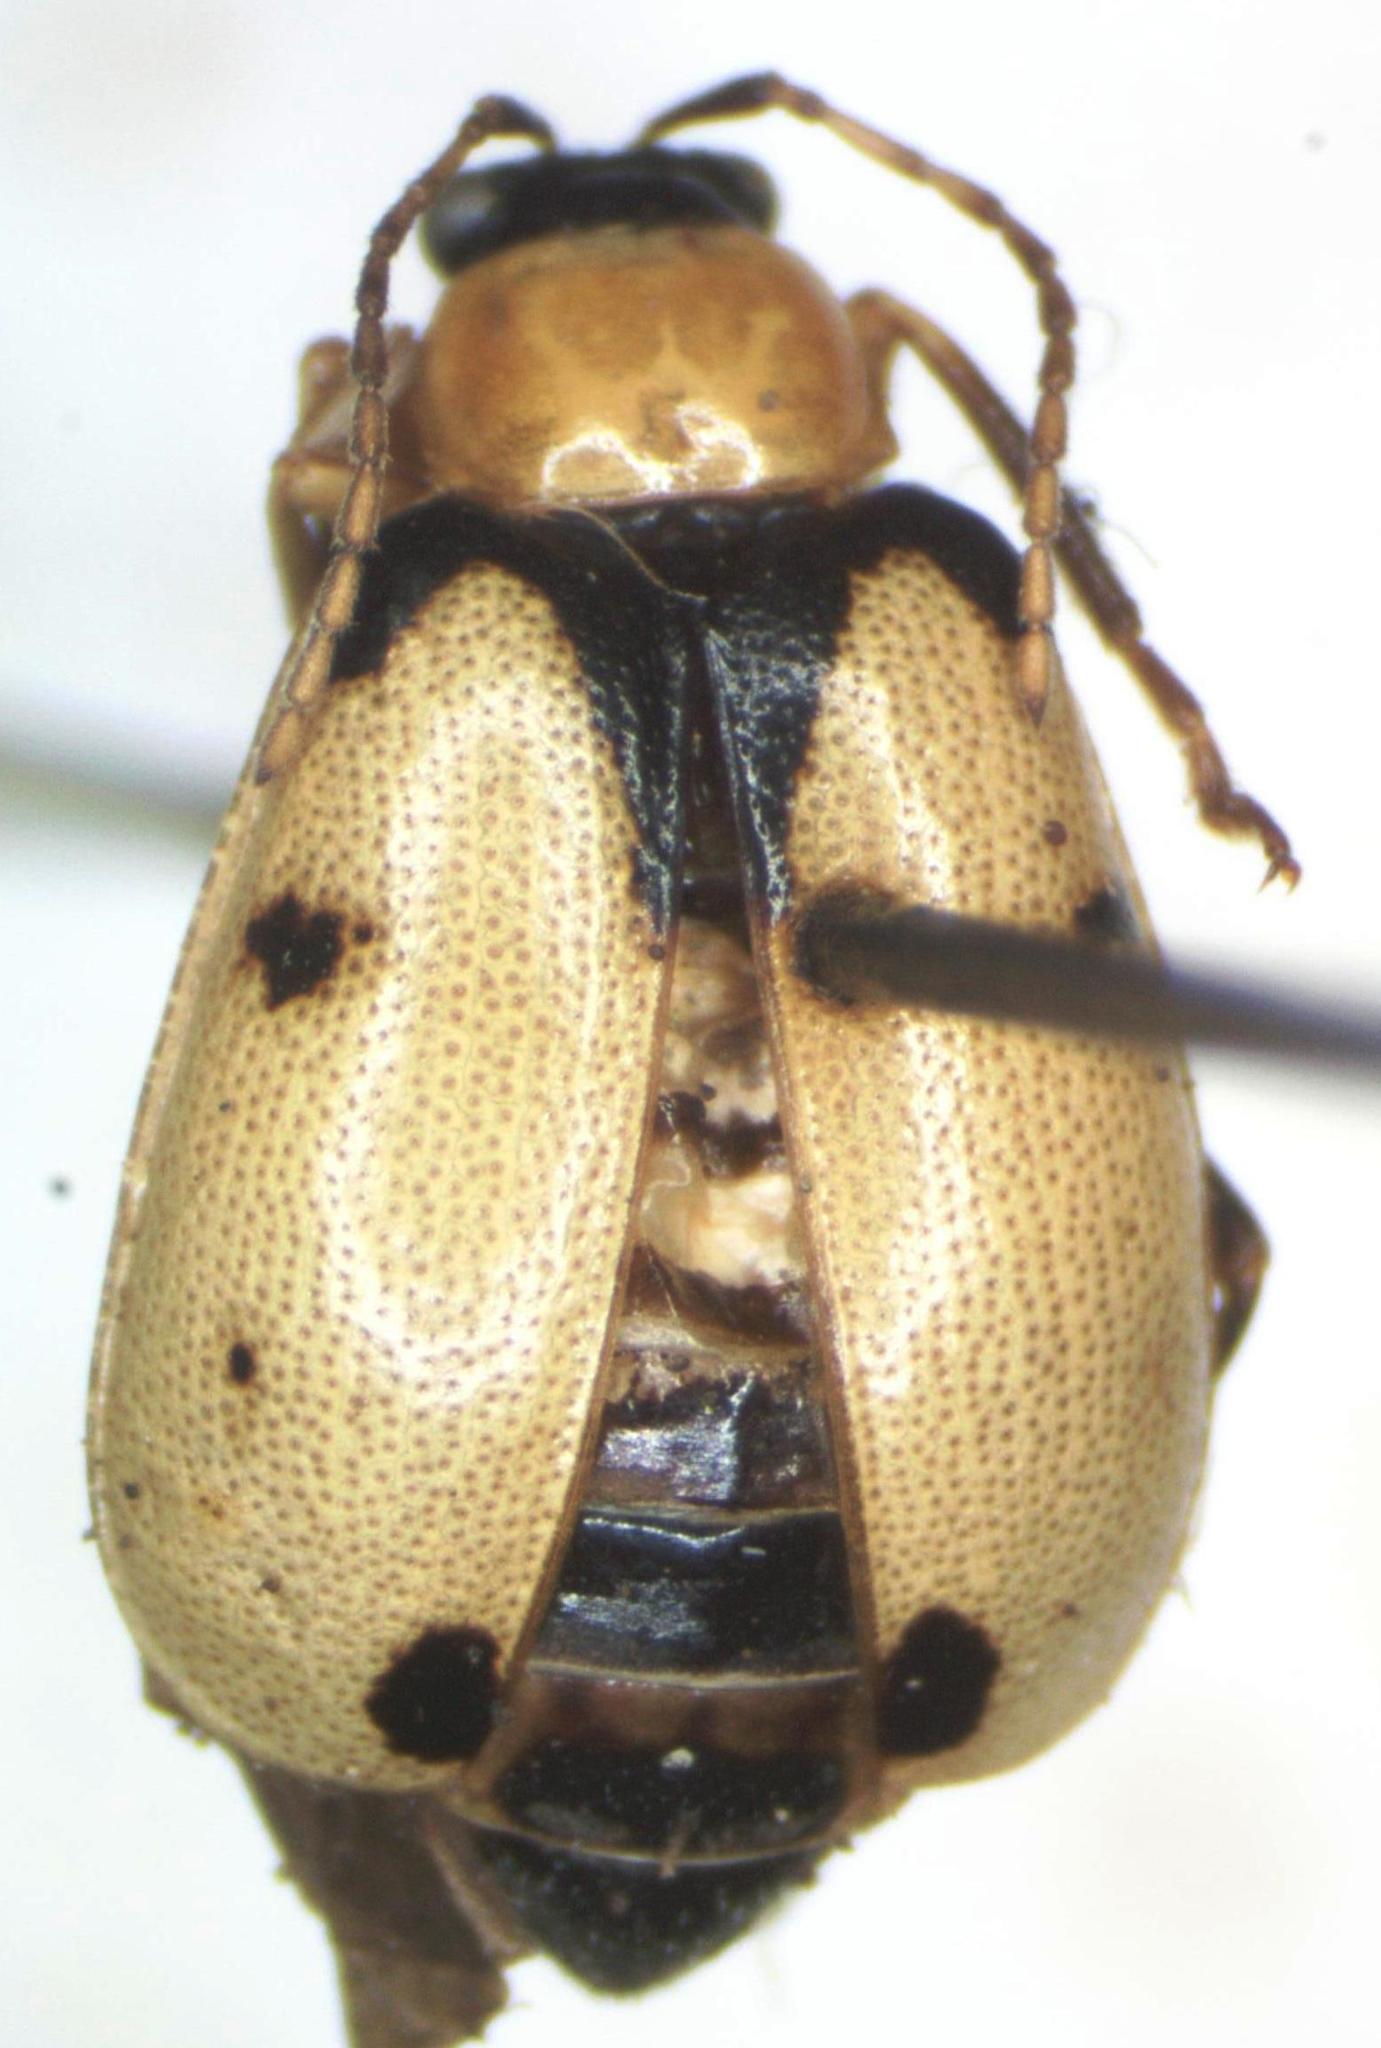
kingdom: Animalia
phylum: Arthropoda
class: Insecta
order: Coleoptera
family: Chrysomelidae
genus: Cerotoma
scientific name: Cerotoma atrofasciata
